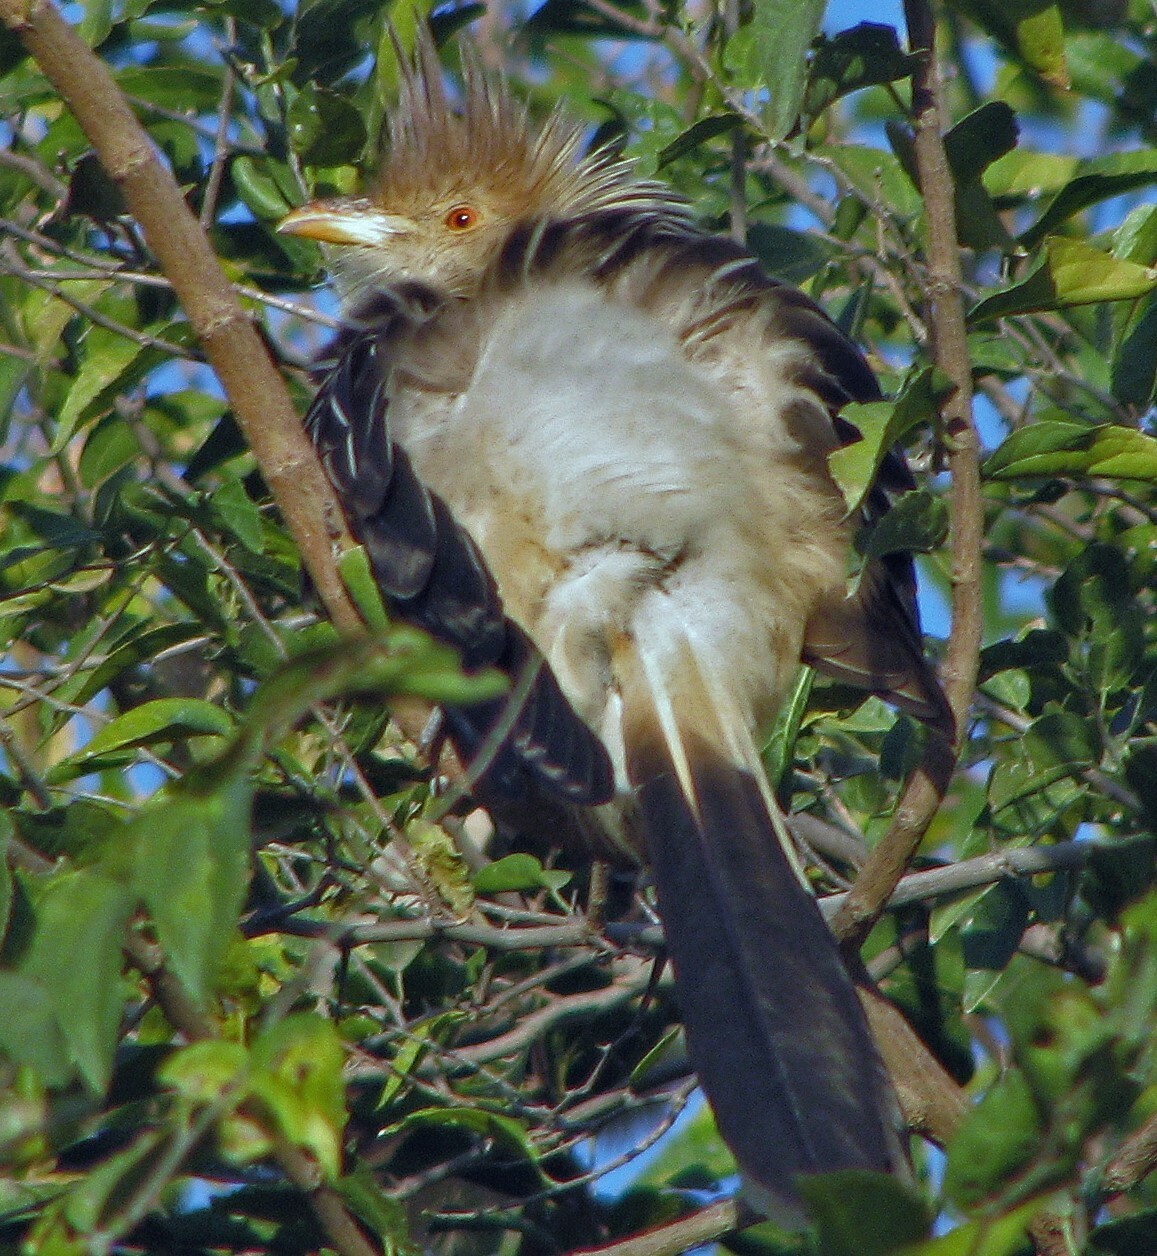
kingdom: Animalia
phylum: Chordata
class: Aves
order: Cuculiformes
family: Cuculidae
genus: Guira
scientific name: Guira guira
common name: Guira cuckoo
